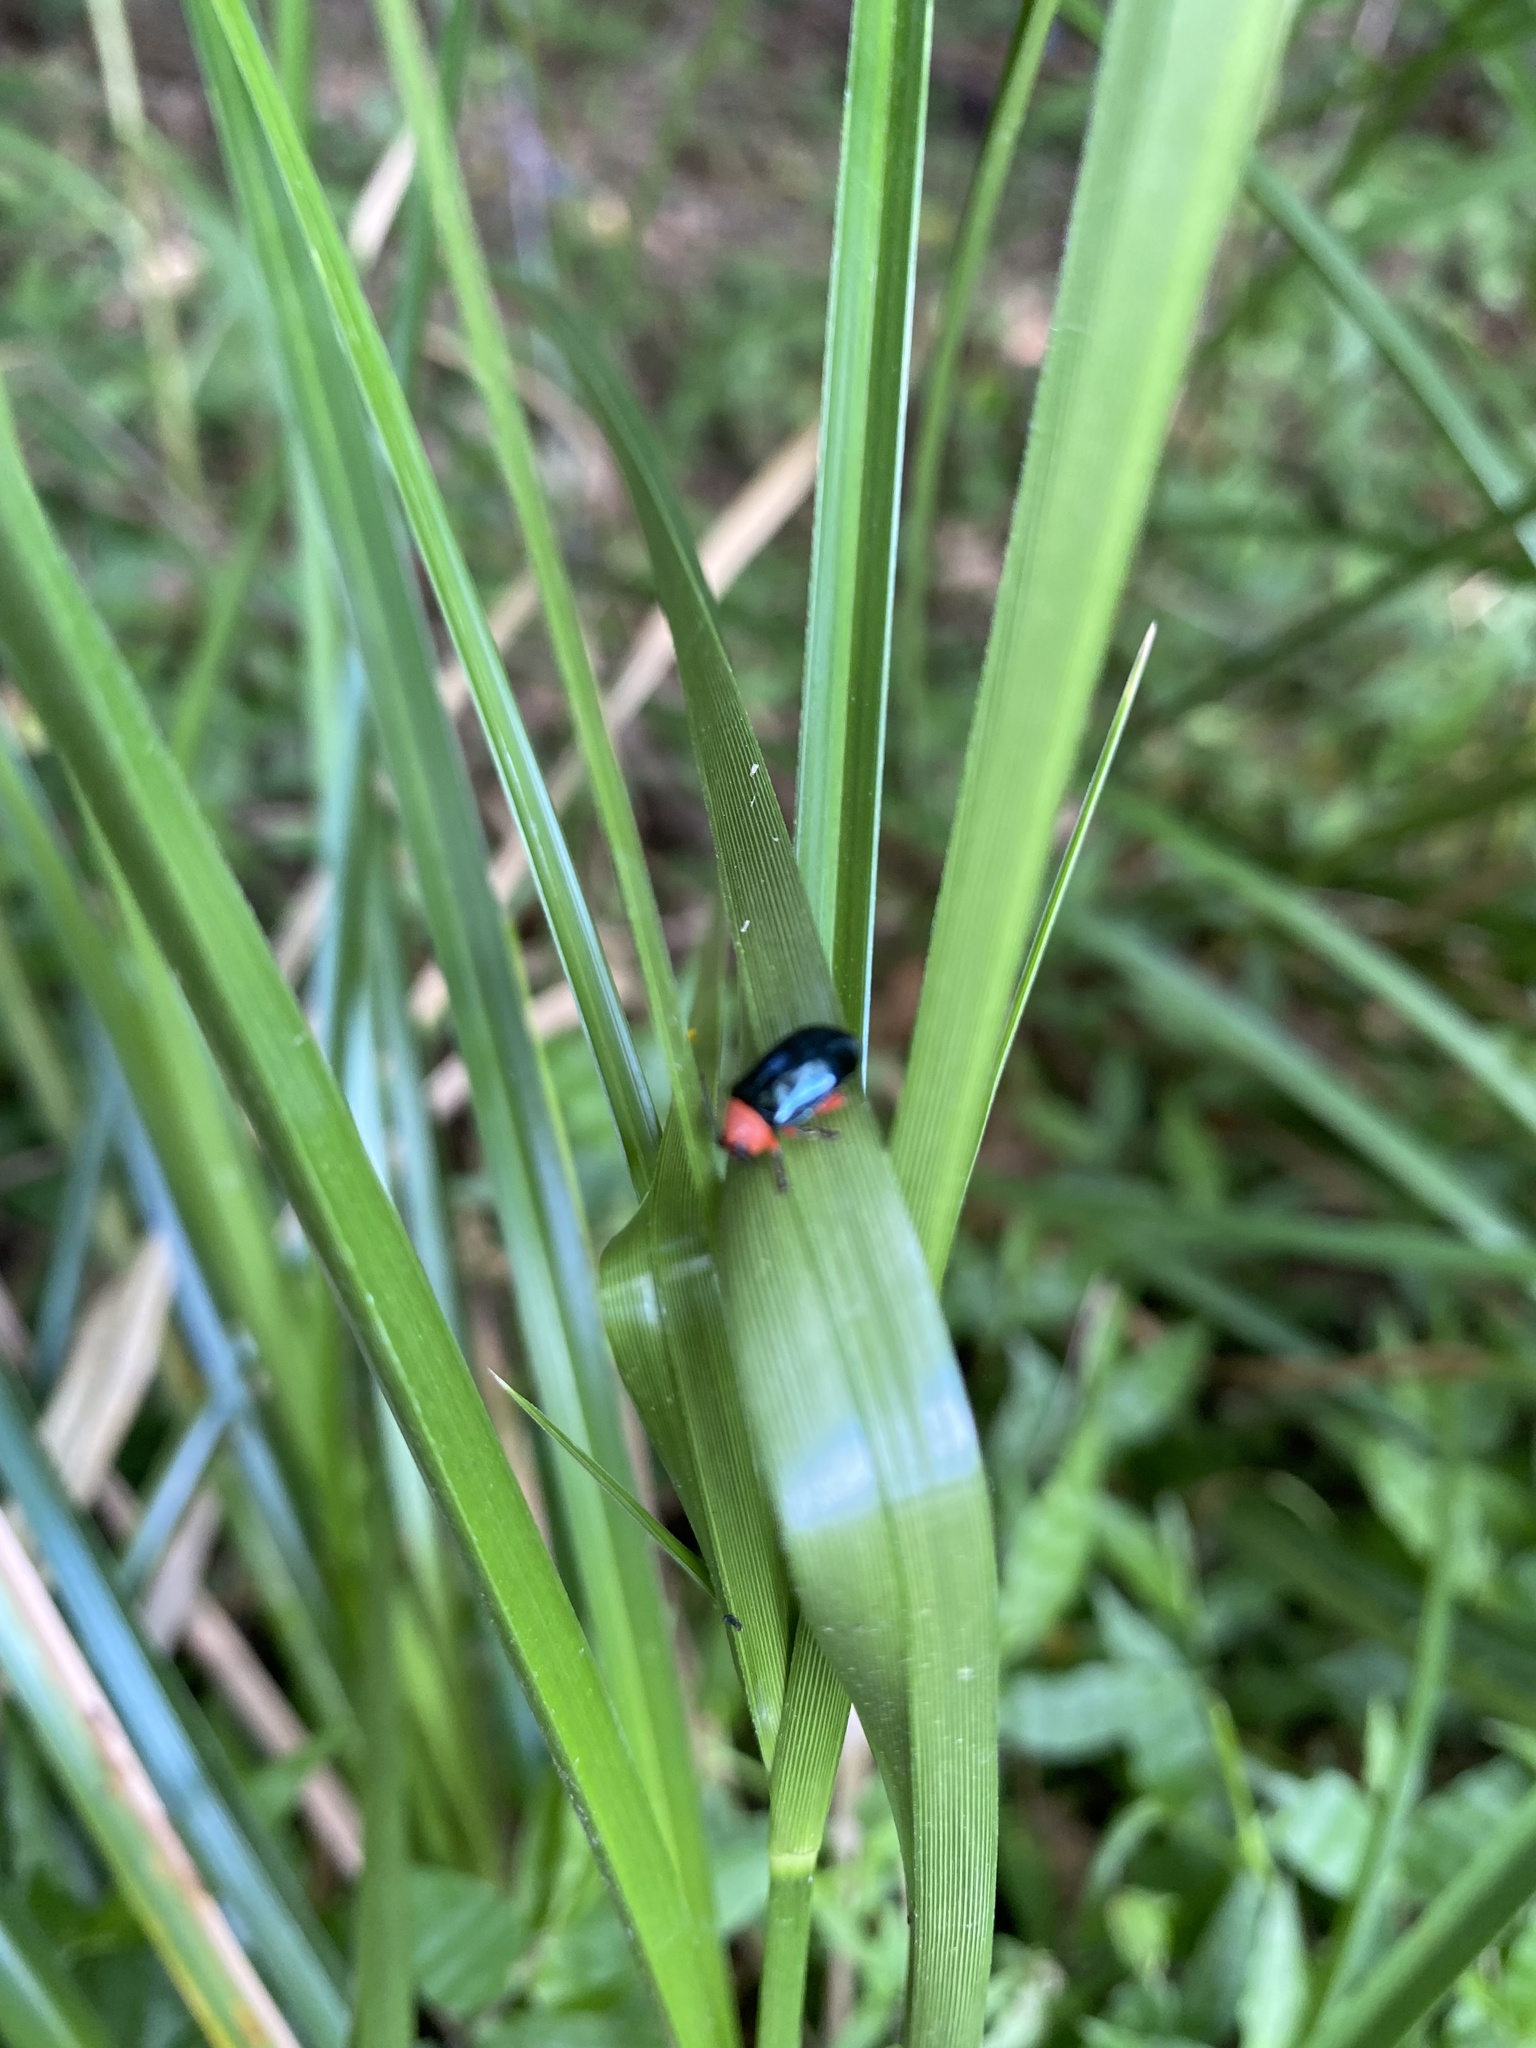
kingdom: Animalia
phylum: Arthropoda
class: Insecta
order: Coleoptera
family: Chrysomelidae
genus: Asphaera
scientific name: Asphaera lustrans
